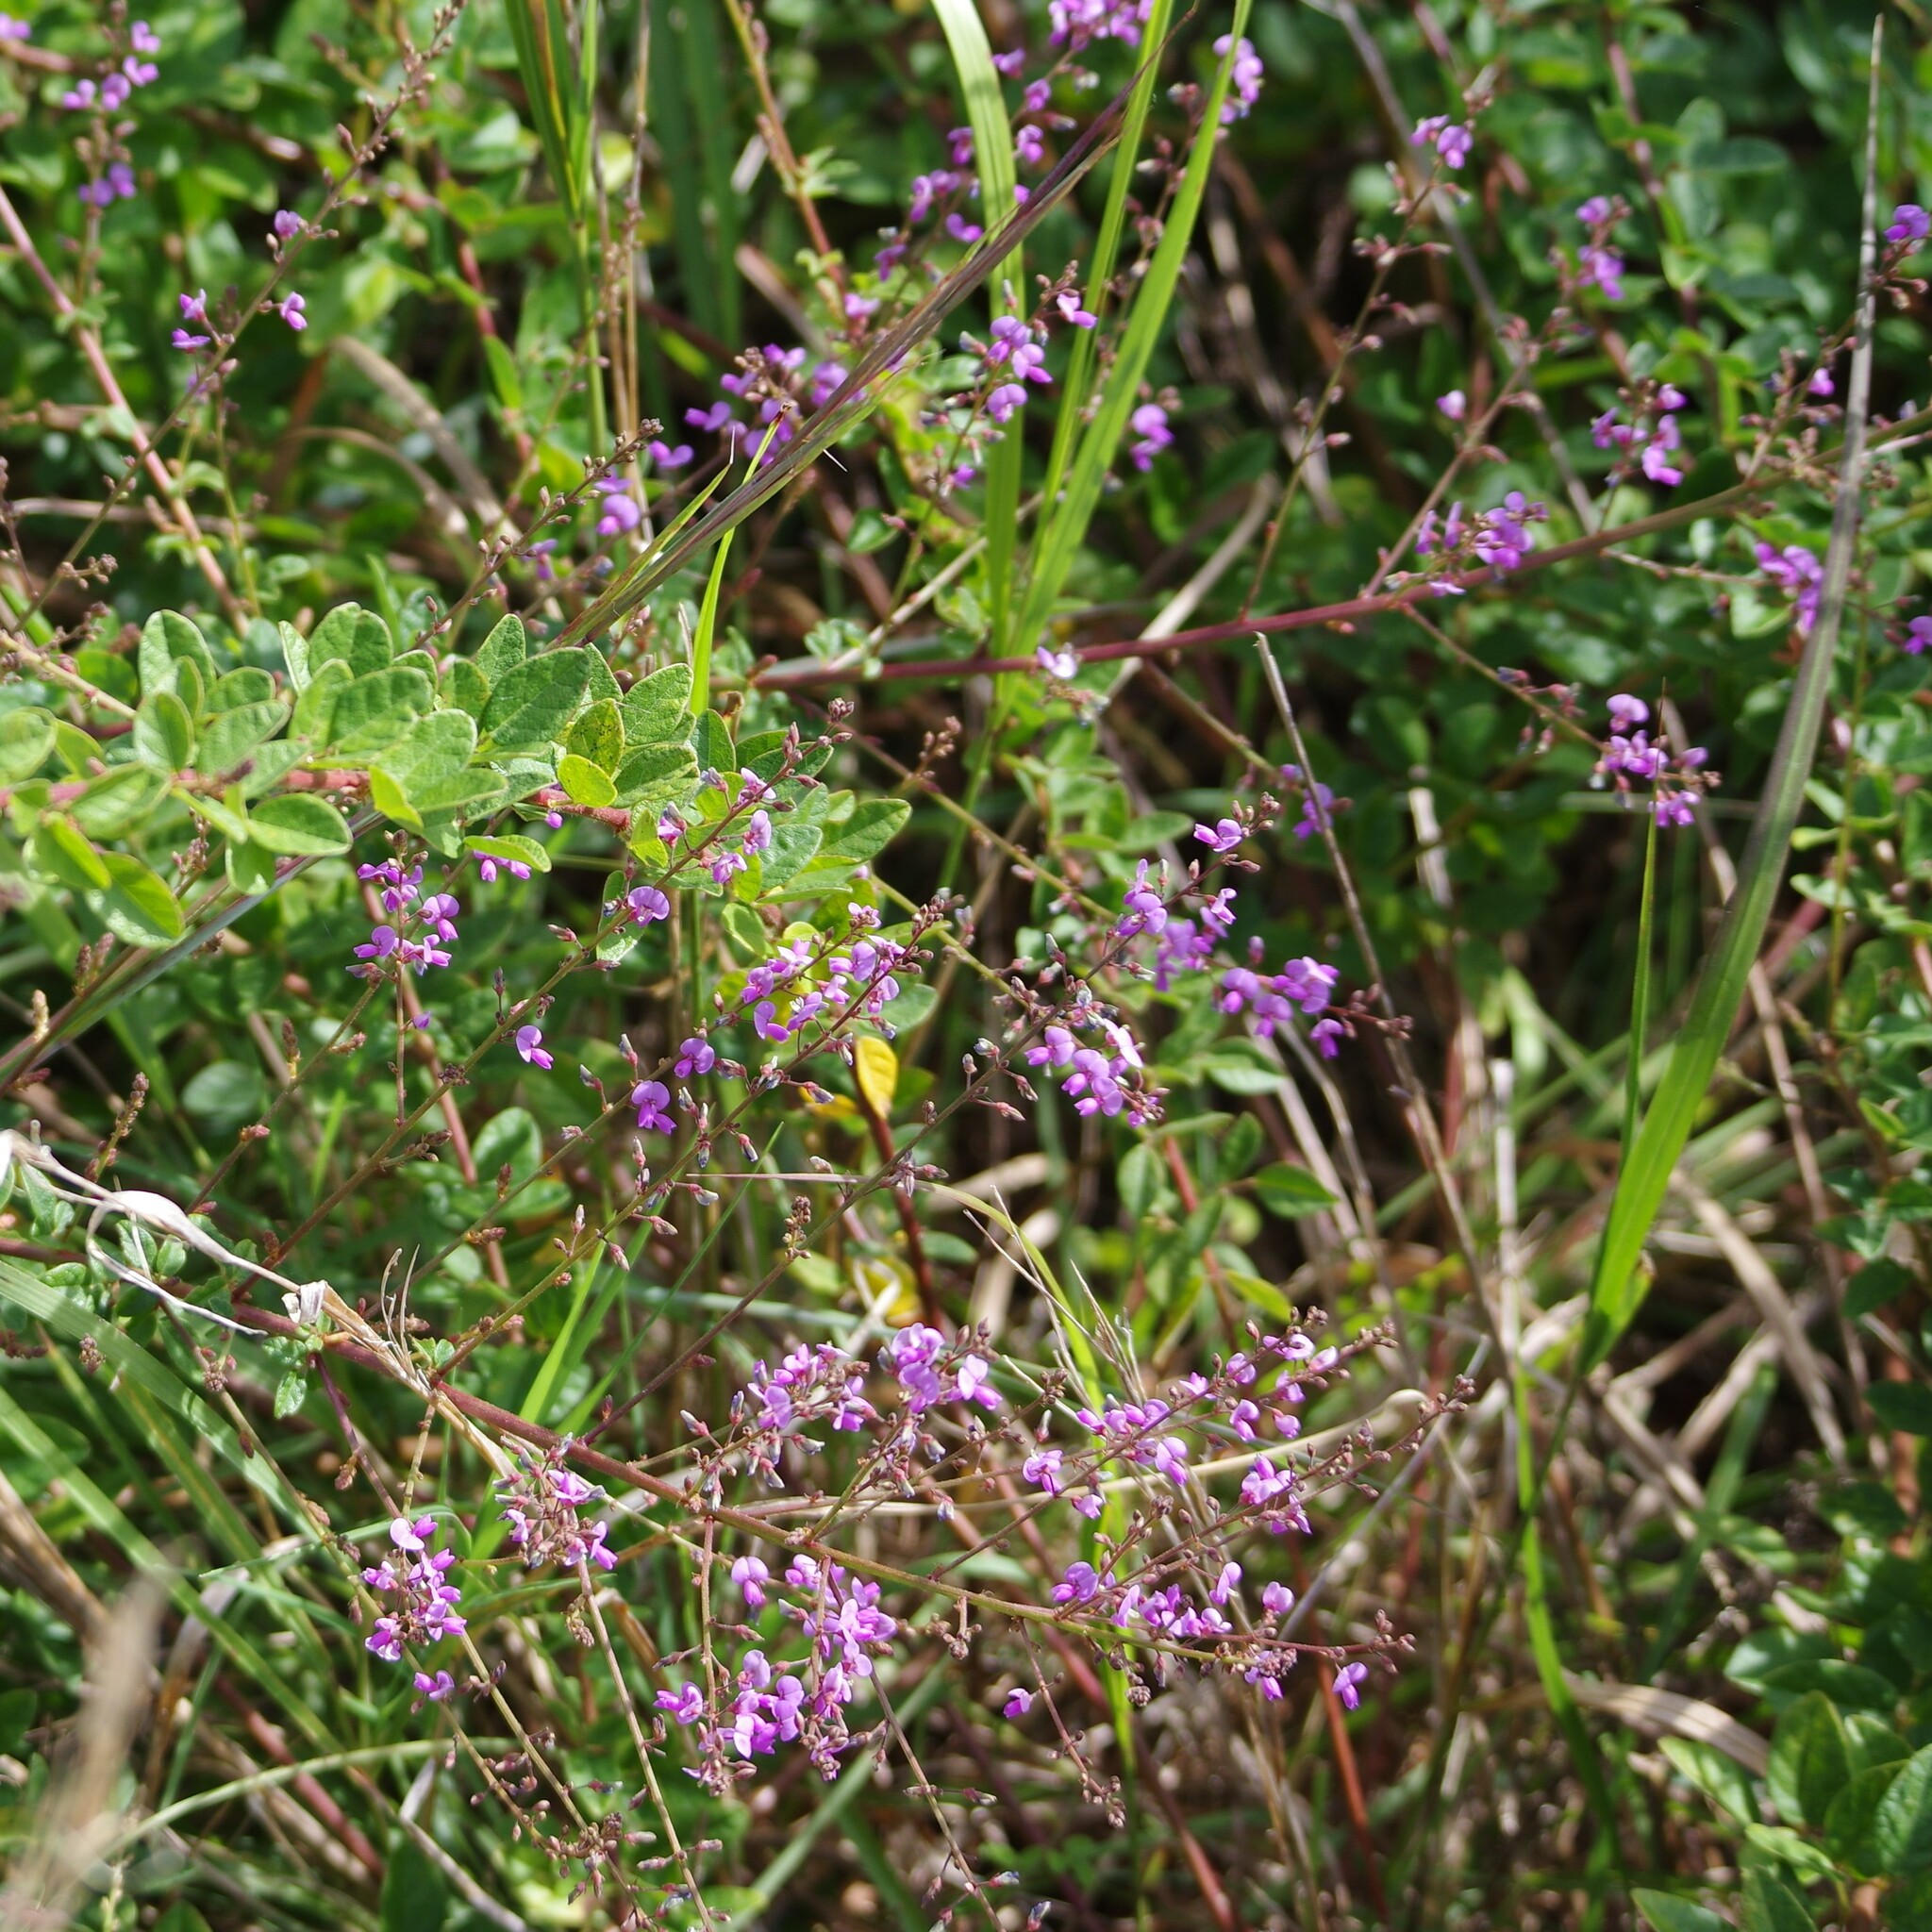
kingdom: Plantae
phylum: Tracheophyta
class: Magnoliopsida
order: Fabales
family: Fabaceae
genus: Desmodium
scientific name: Desmodium ciliare
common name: Hairy small-leaf ticktrefoil
